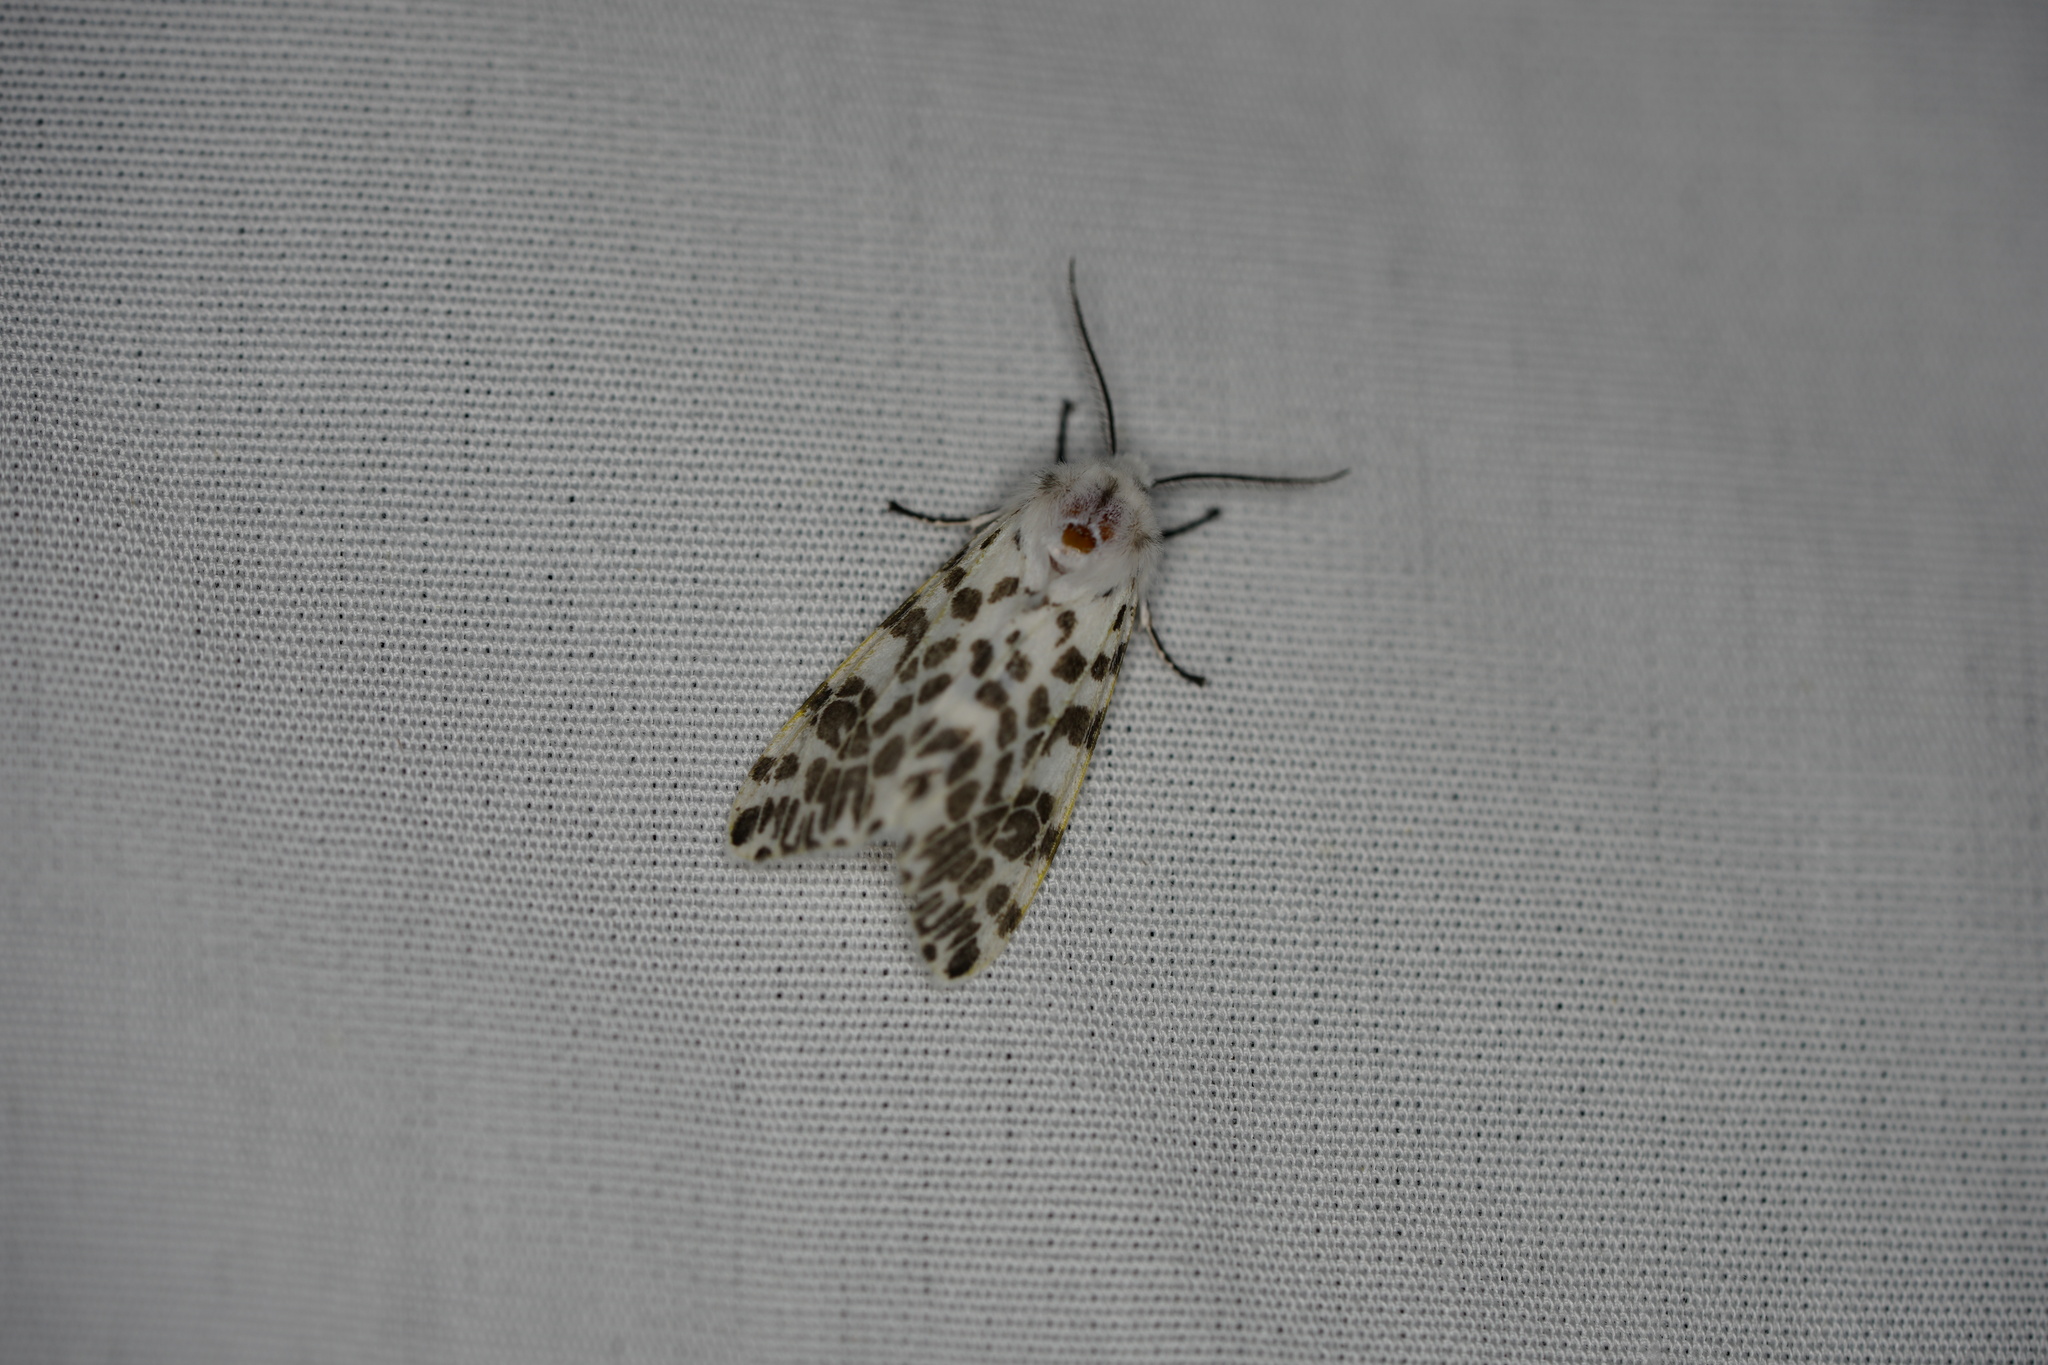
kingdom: Animalia
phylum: Arthropoda
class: Insecta
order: Lepidoptera
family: Erebidae
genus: Hyphantria
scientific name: Hyphantria cunea
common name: American white moth
